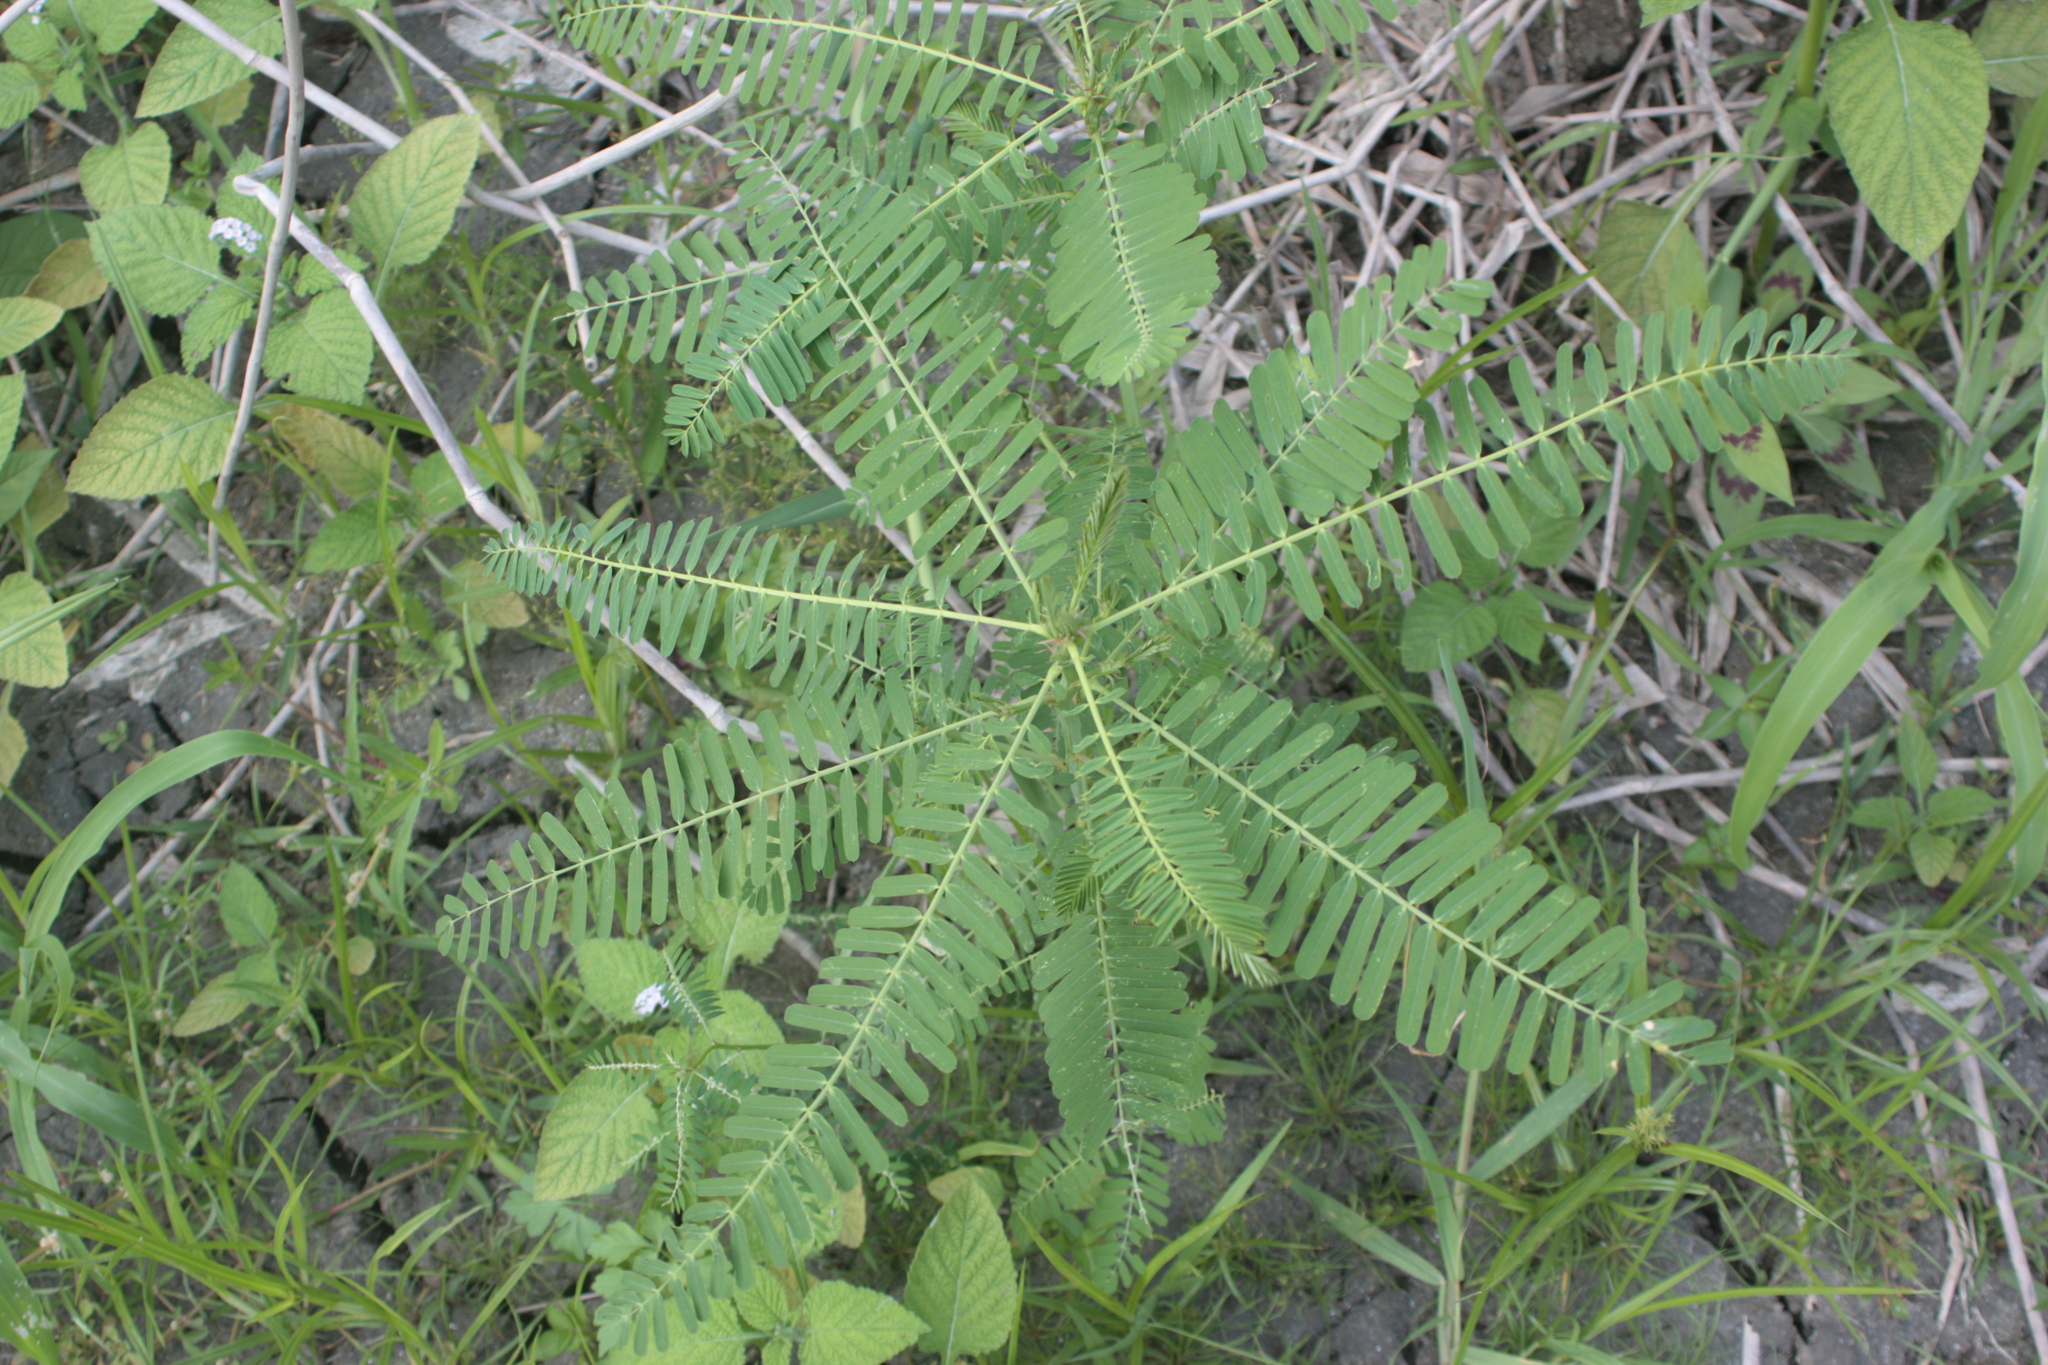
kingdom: Plantae
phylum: Tracheophyta
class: Magnoliopsida
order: Fabales
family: Fabaceae
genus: Sesbania
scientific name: Sesbania cannabina
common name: Canicha
